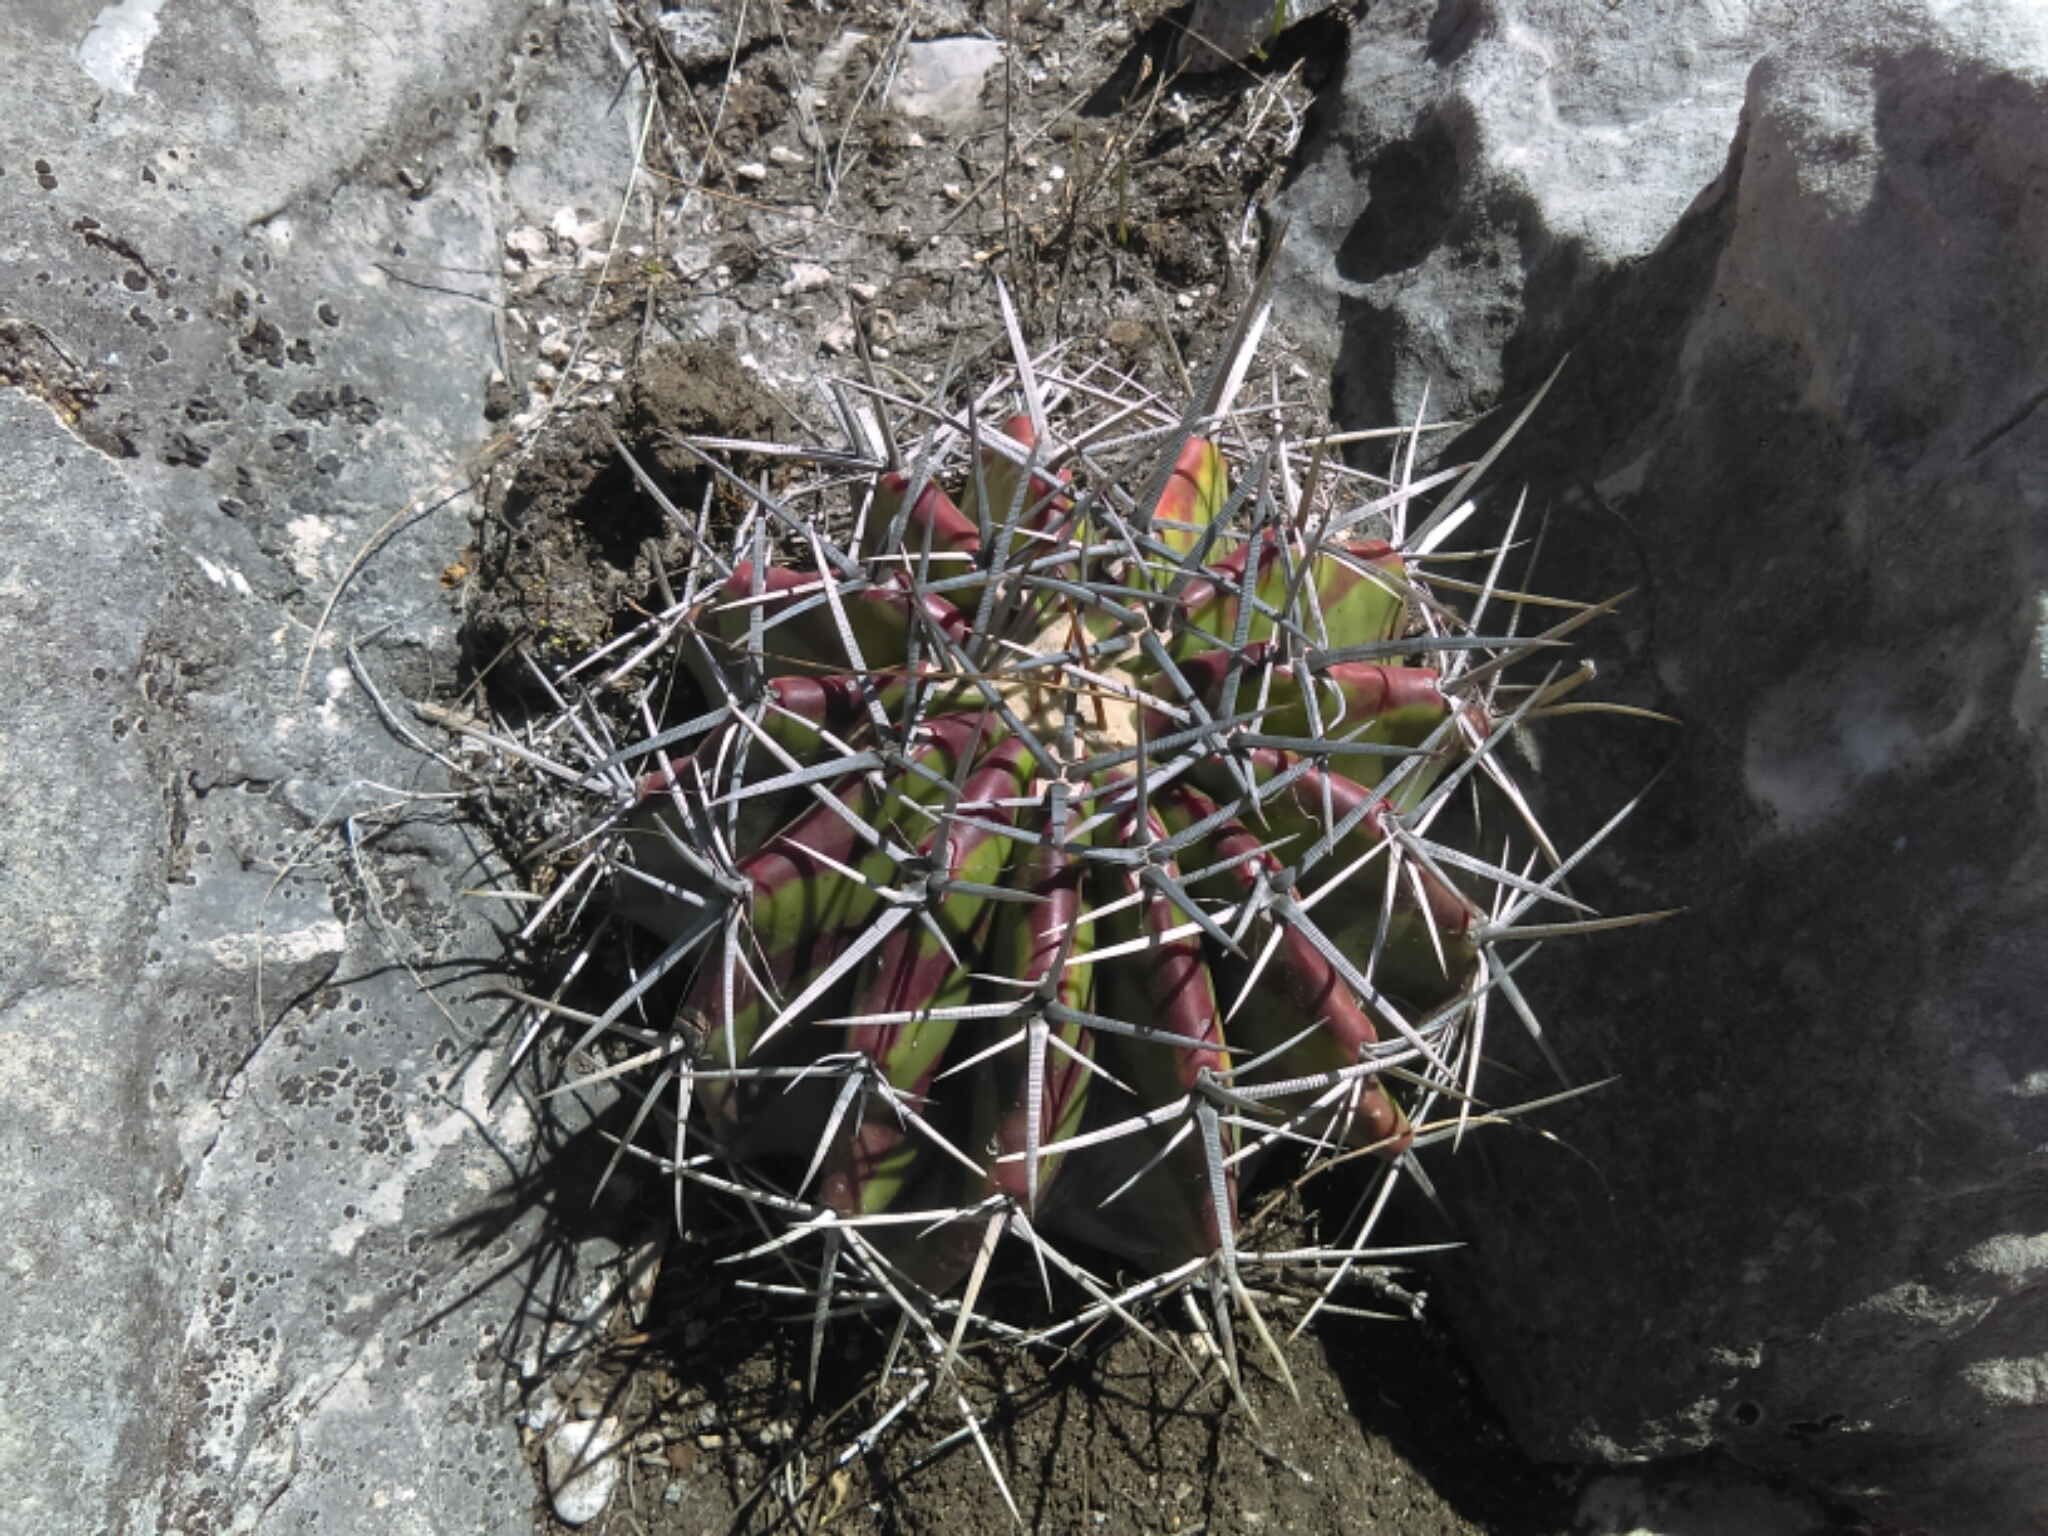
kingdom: Plantae
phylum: Tracheophyta
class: Magnoliopsida
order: Caryophyllales
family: Cactaceae
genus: Echinocactus
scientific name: Echinocactus platyacanthus
